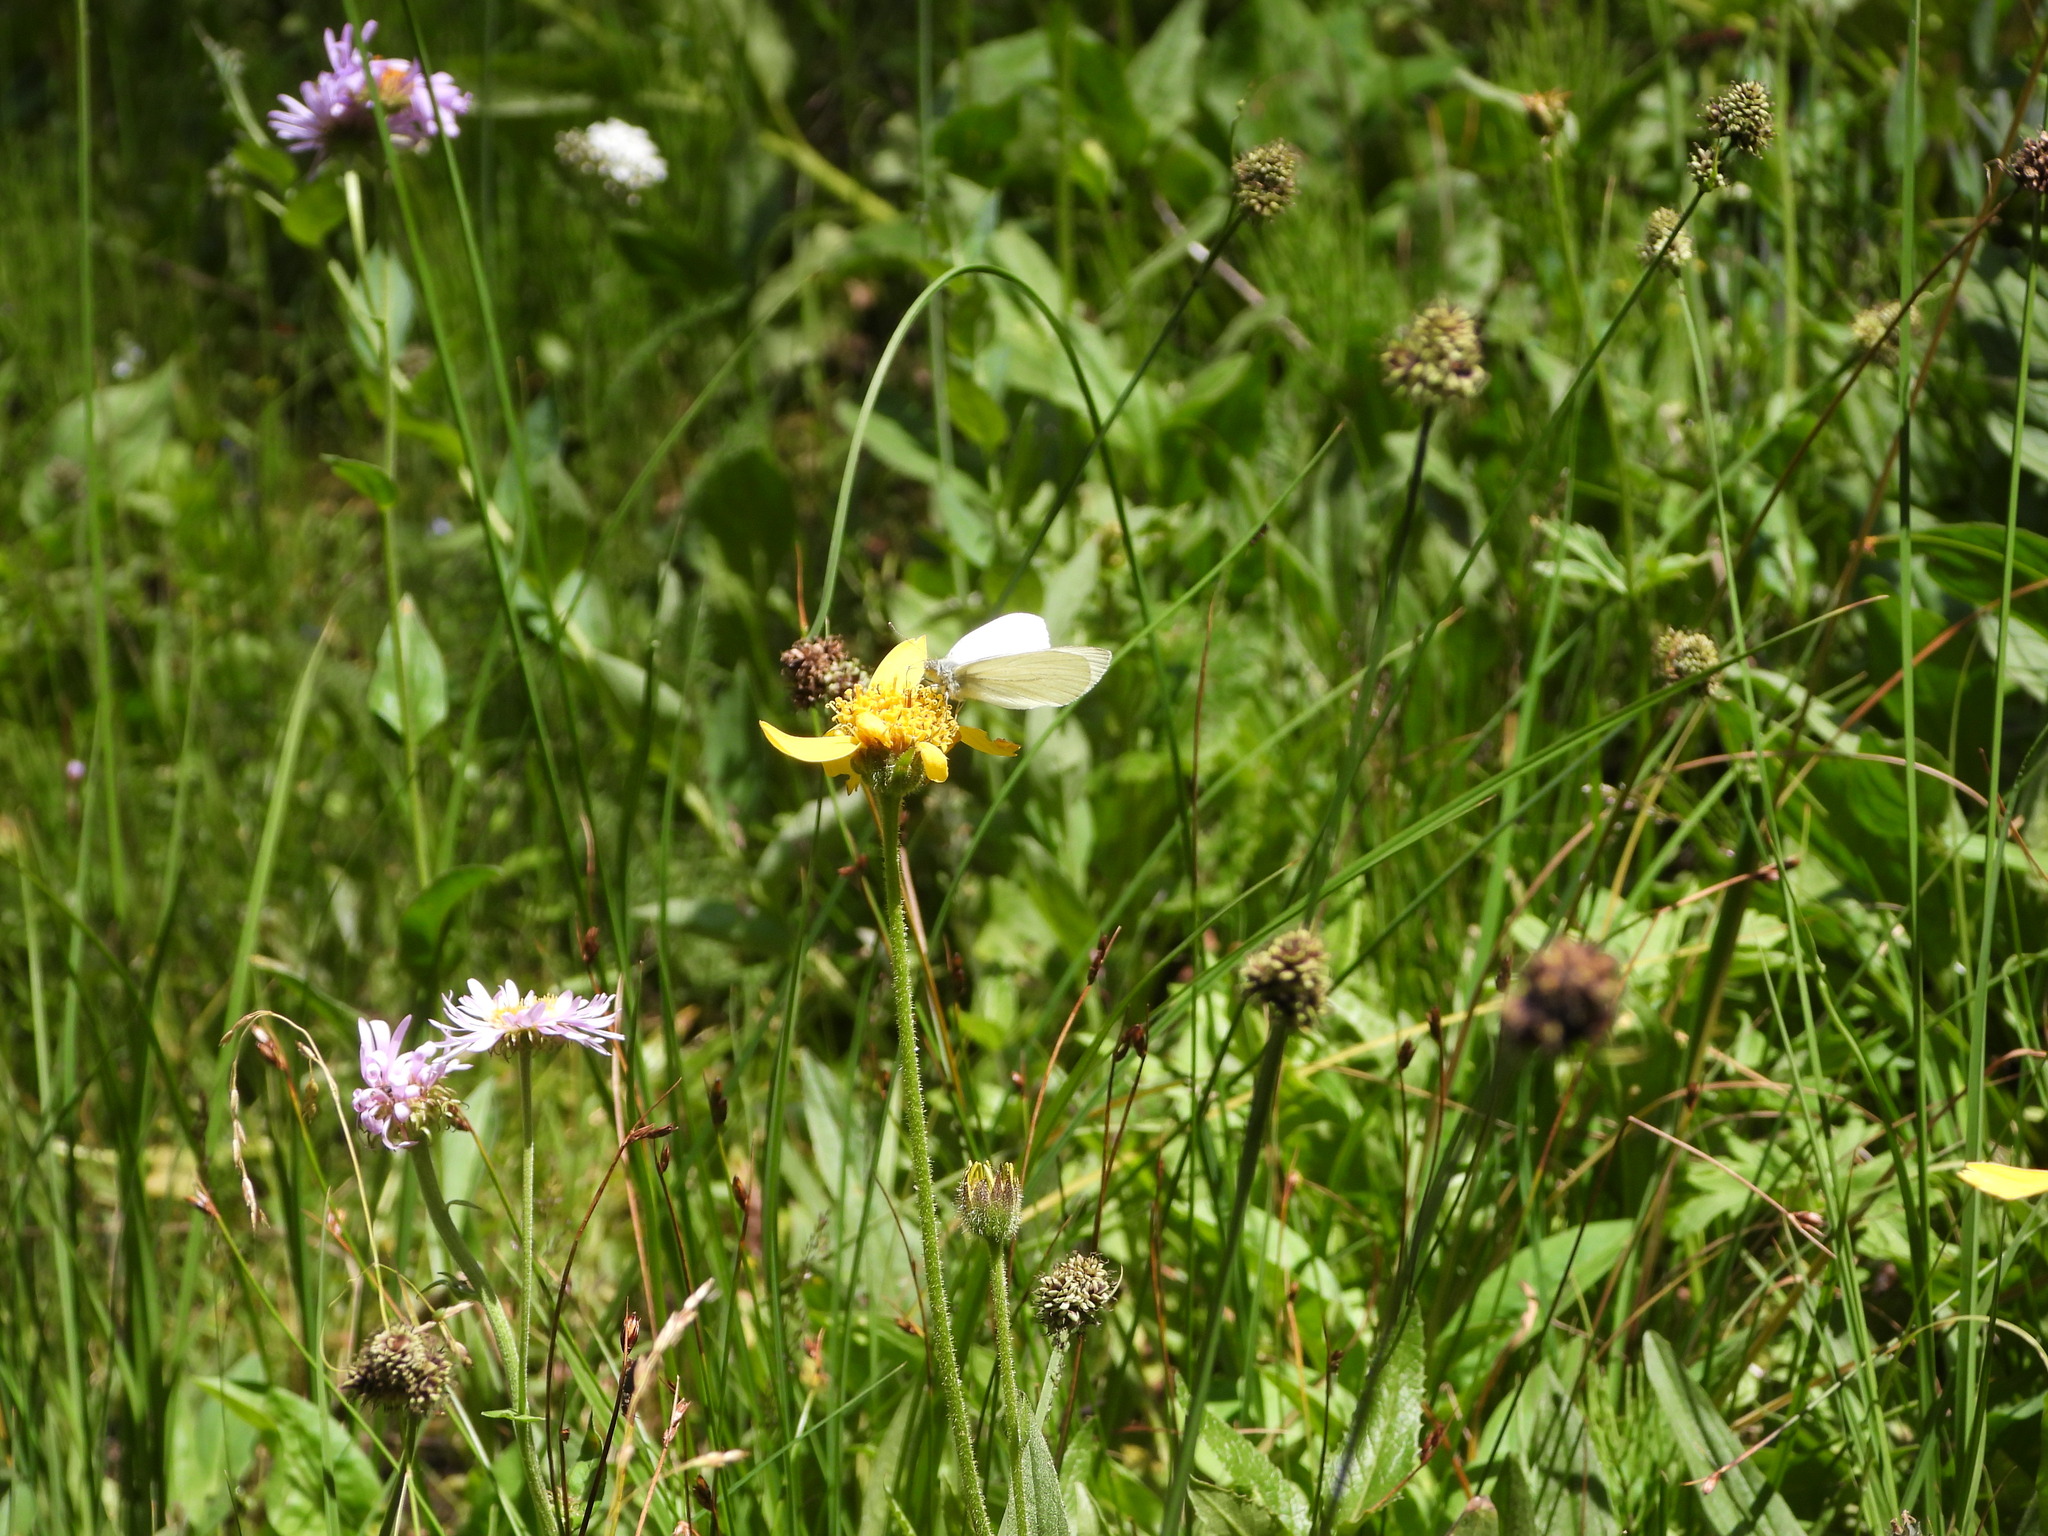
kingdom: Animalia
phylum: Arthropoda
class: Insecta
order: Lepidoptera
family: Pieridae
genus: Pieris
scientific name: Pieris marginalis
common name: Margined white
